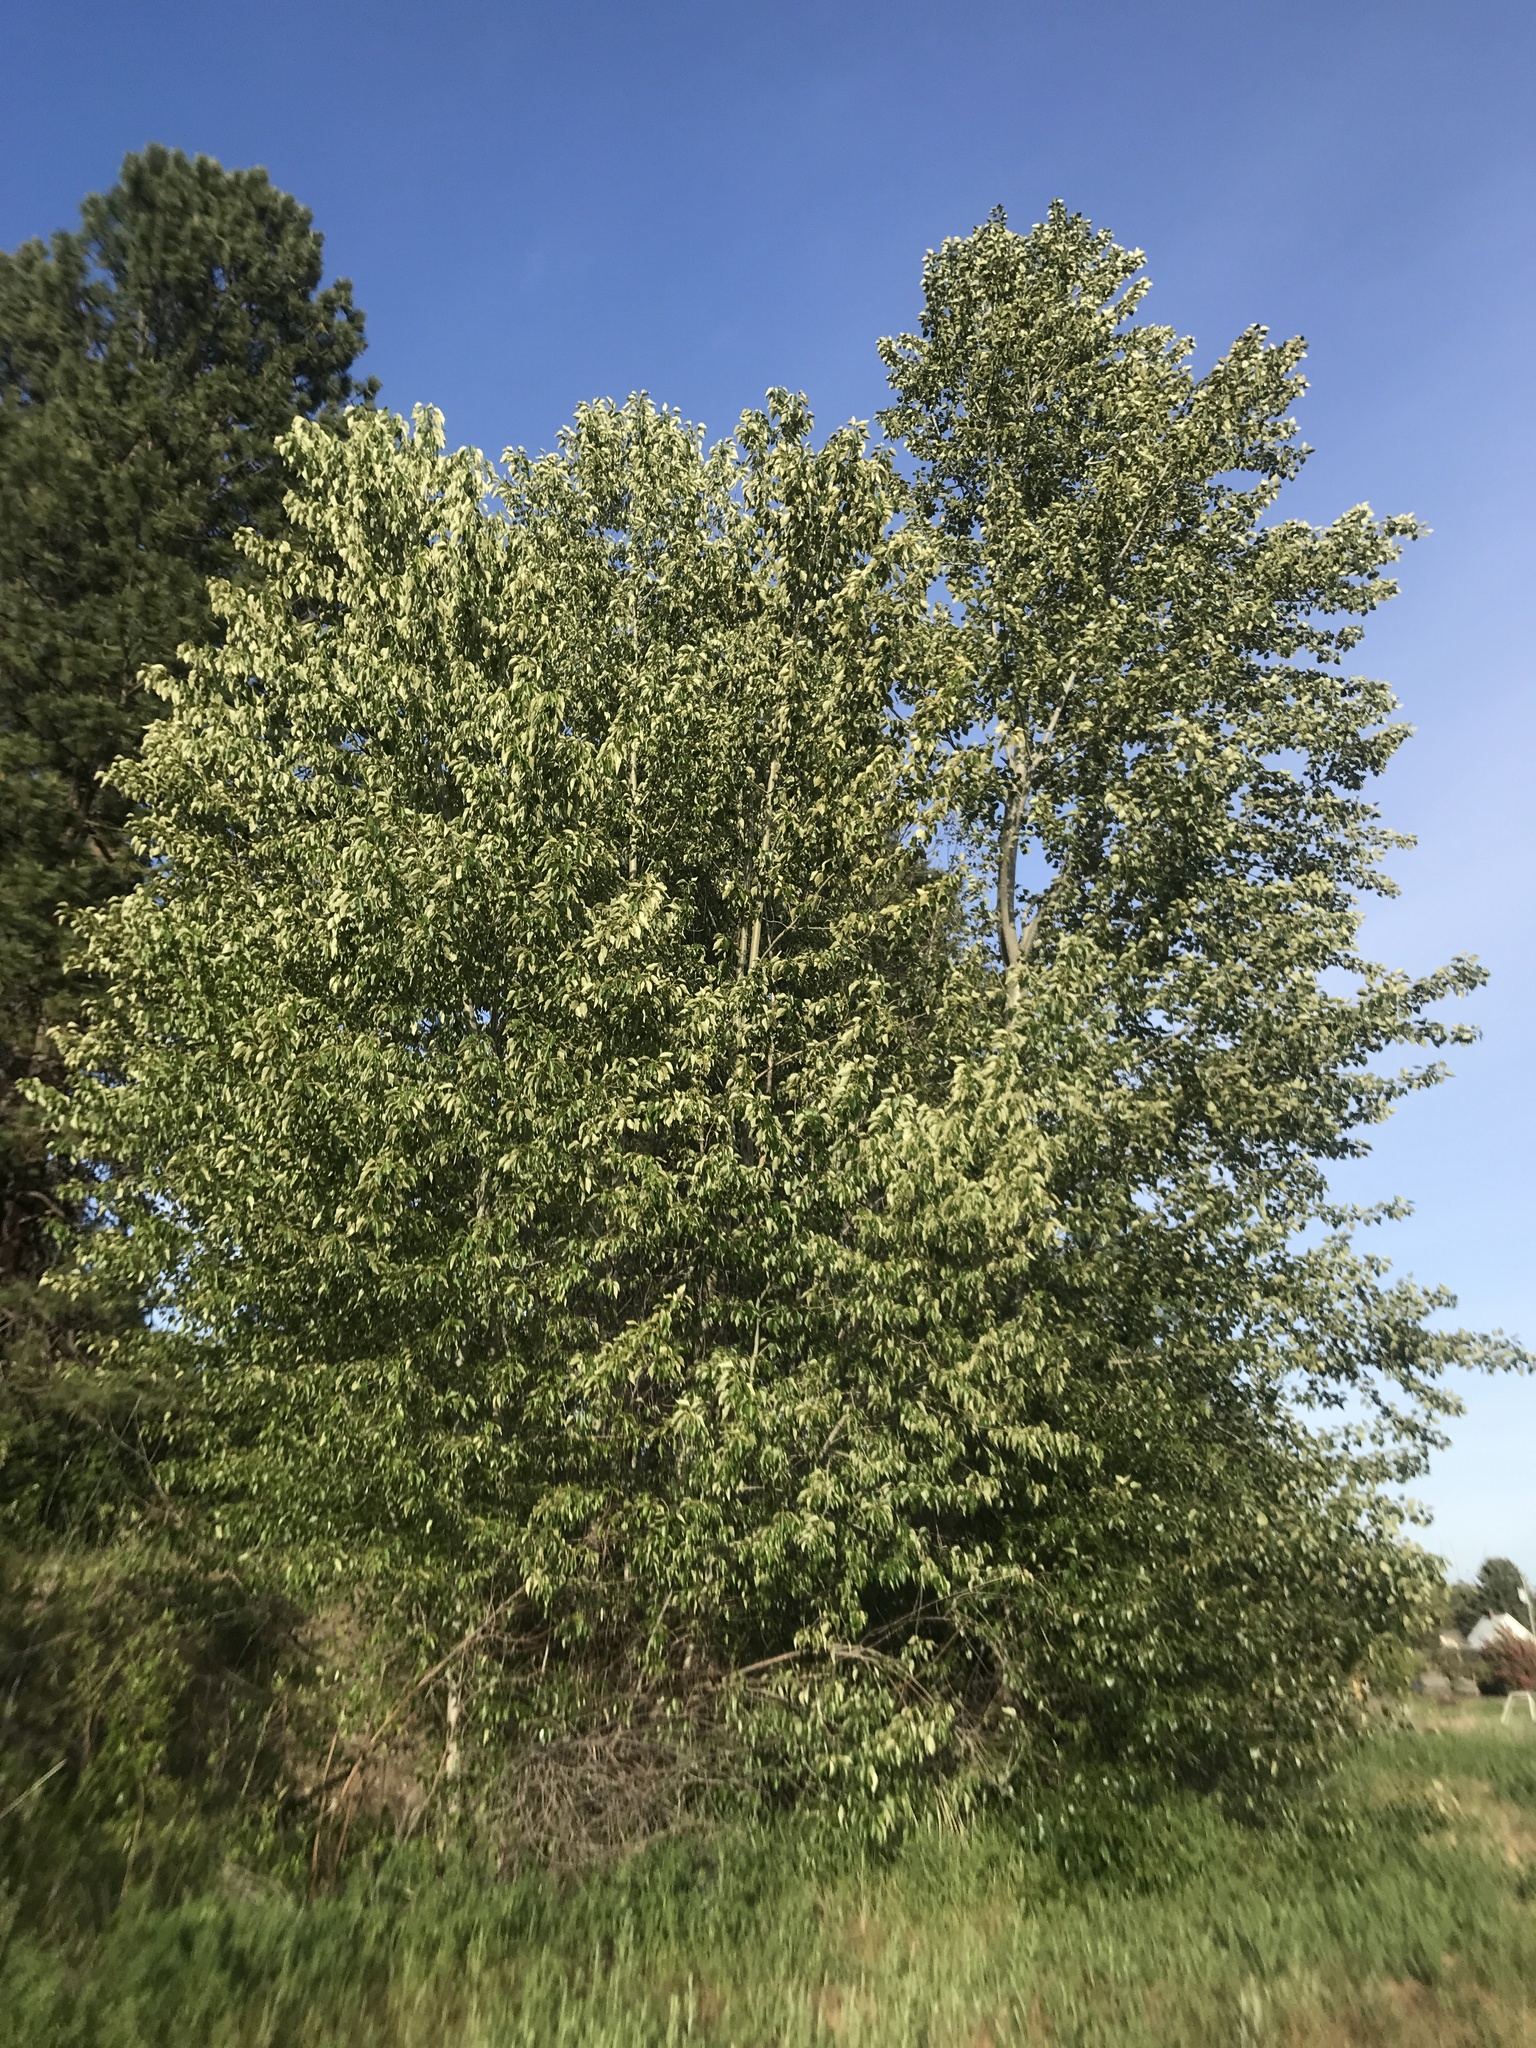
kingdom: Plantae
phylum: Tracheophyta
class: Magnoliopsida
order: Malpighiales
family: Salicaceae
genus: Populus
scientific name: Populus trichocarpa
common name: Black cottonwood
